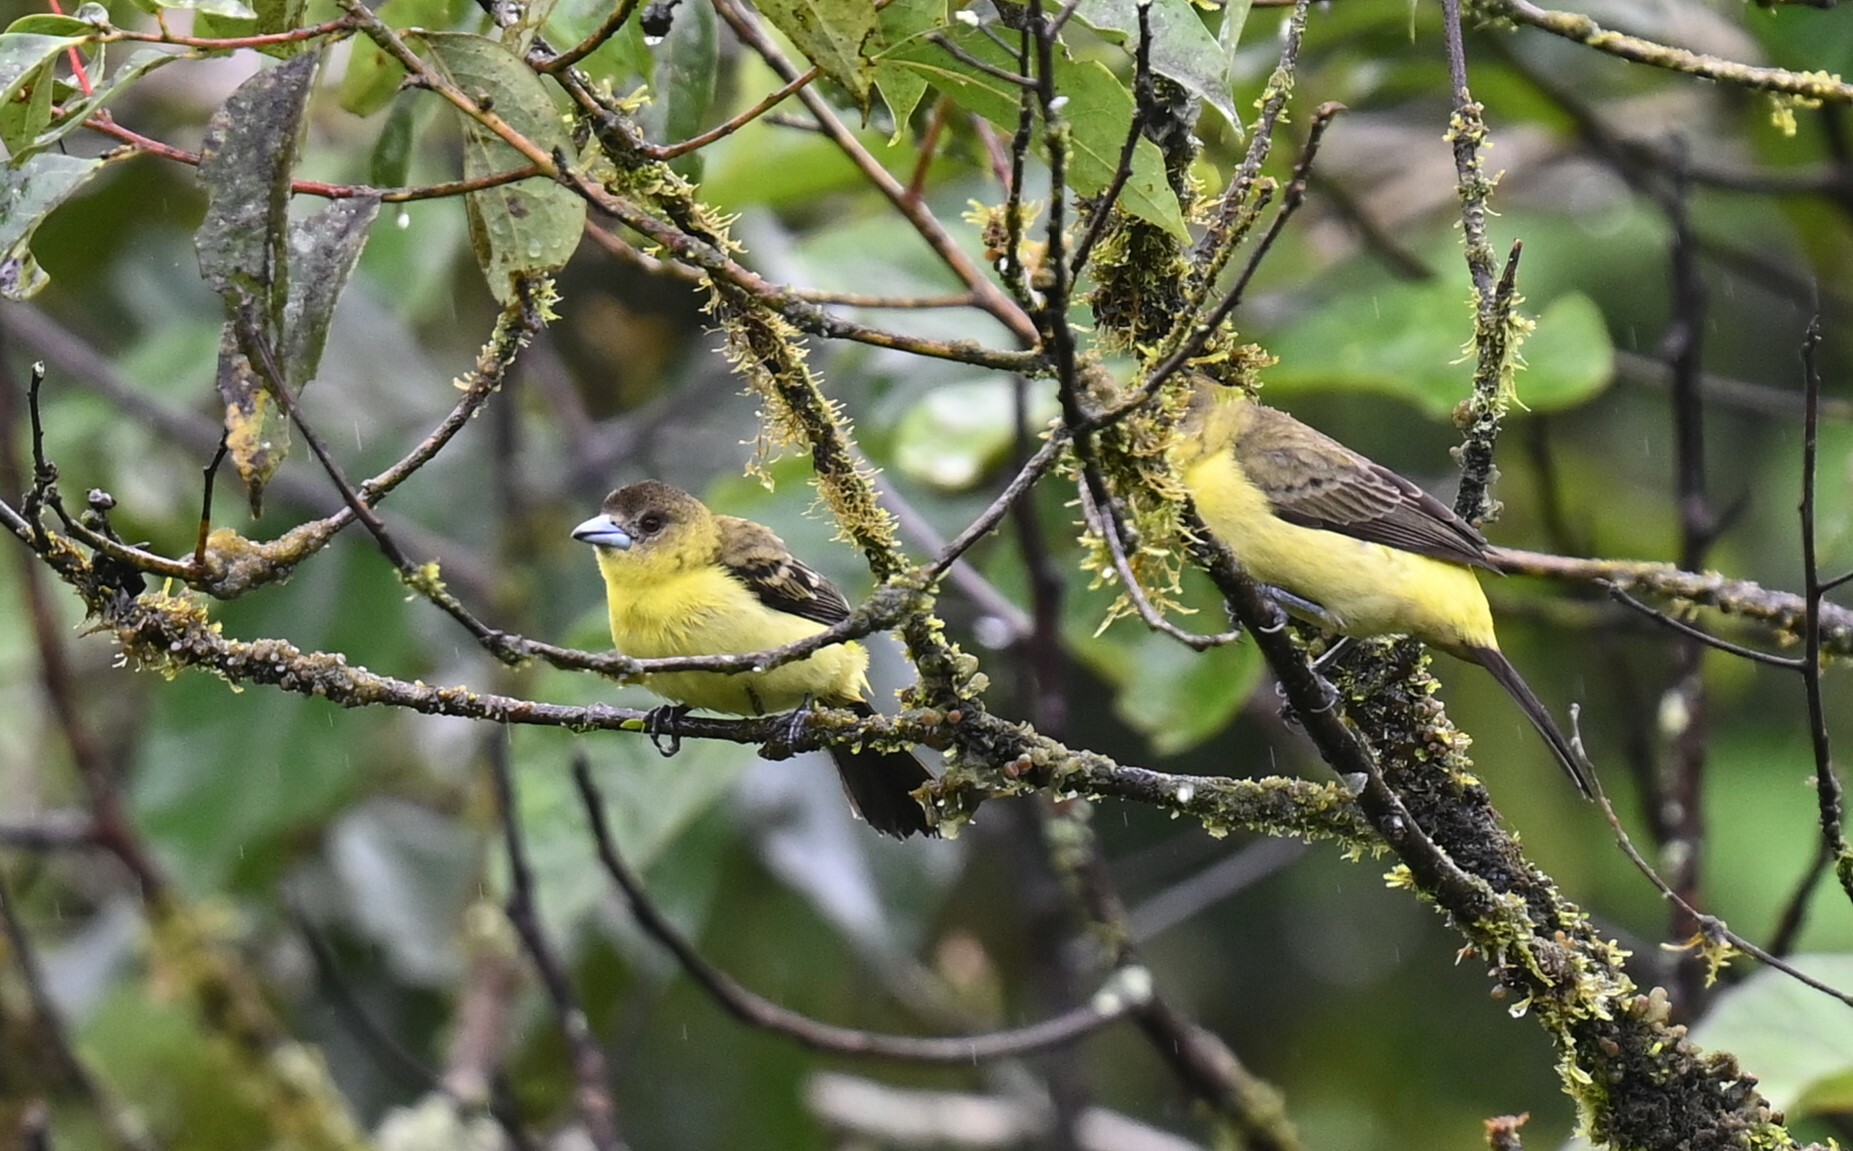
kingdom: Animalia
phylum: Chordata
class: Aves
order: Passeriformes
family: Thraupidae
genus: Ramphocelus
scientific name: Ramphocelus flammigerus
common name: Flame-rumped tanager
